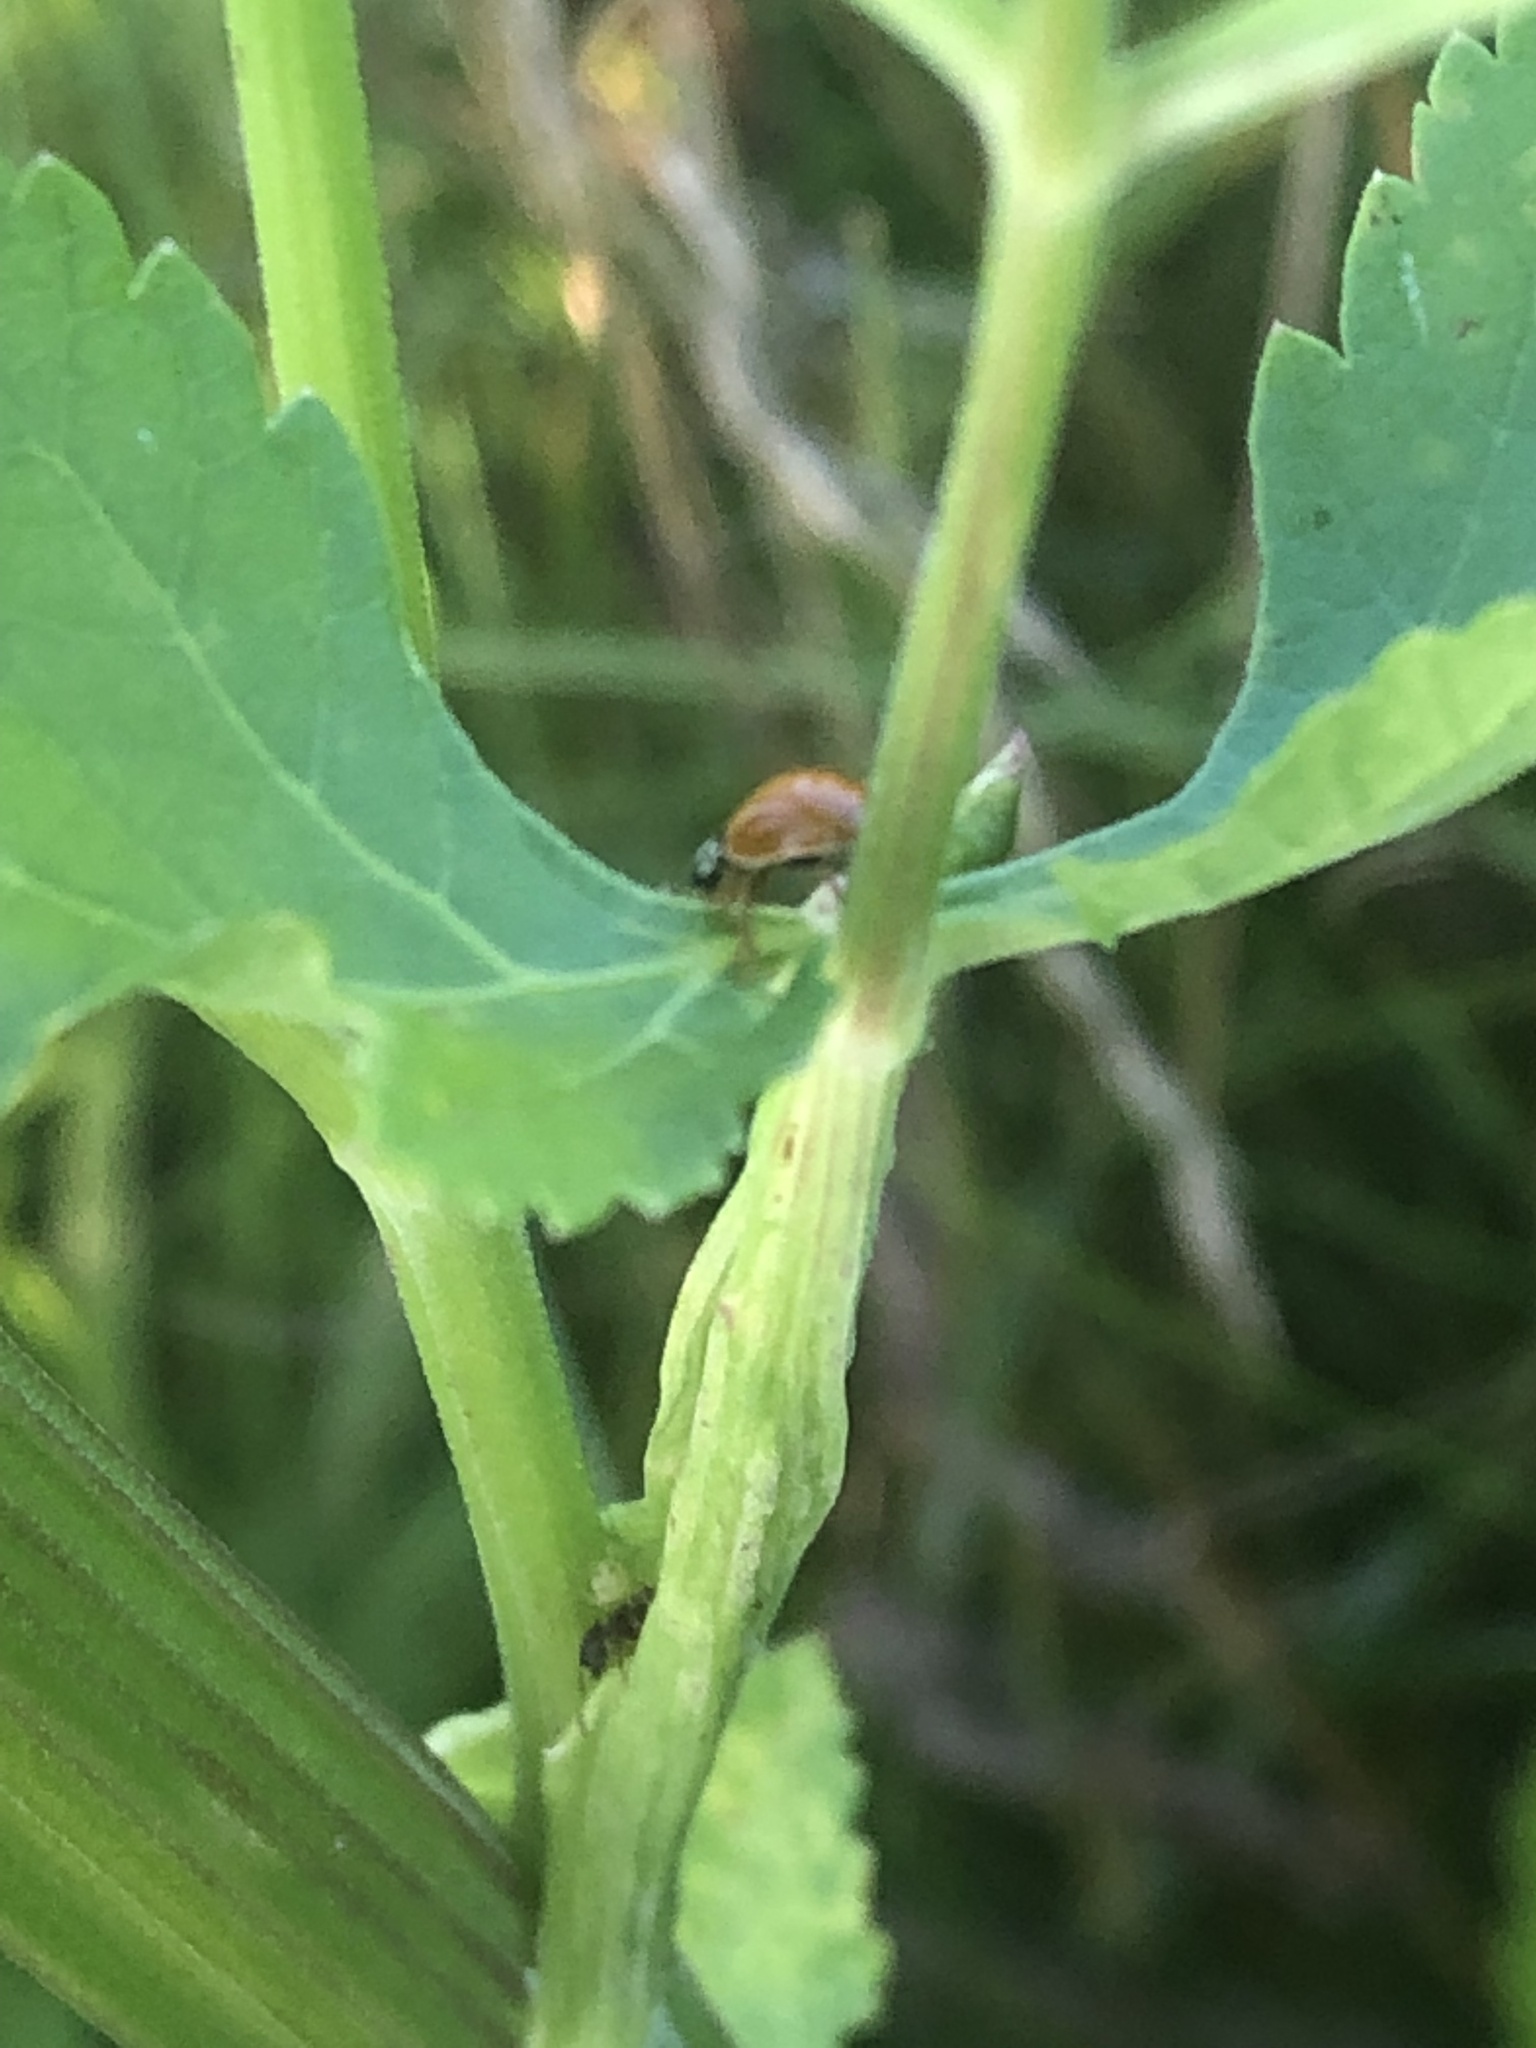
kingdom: Animalia
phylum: Arthropoda
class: Insecta
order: Coleoptera
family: Coccinellidae
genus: Cycloneda
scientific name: Cycloneda munda
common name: Polished lady beetle
